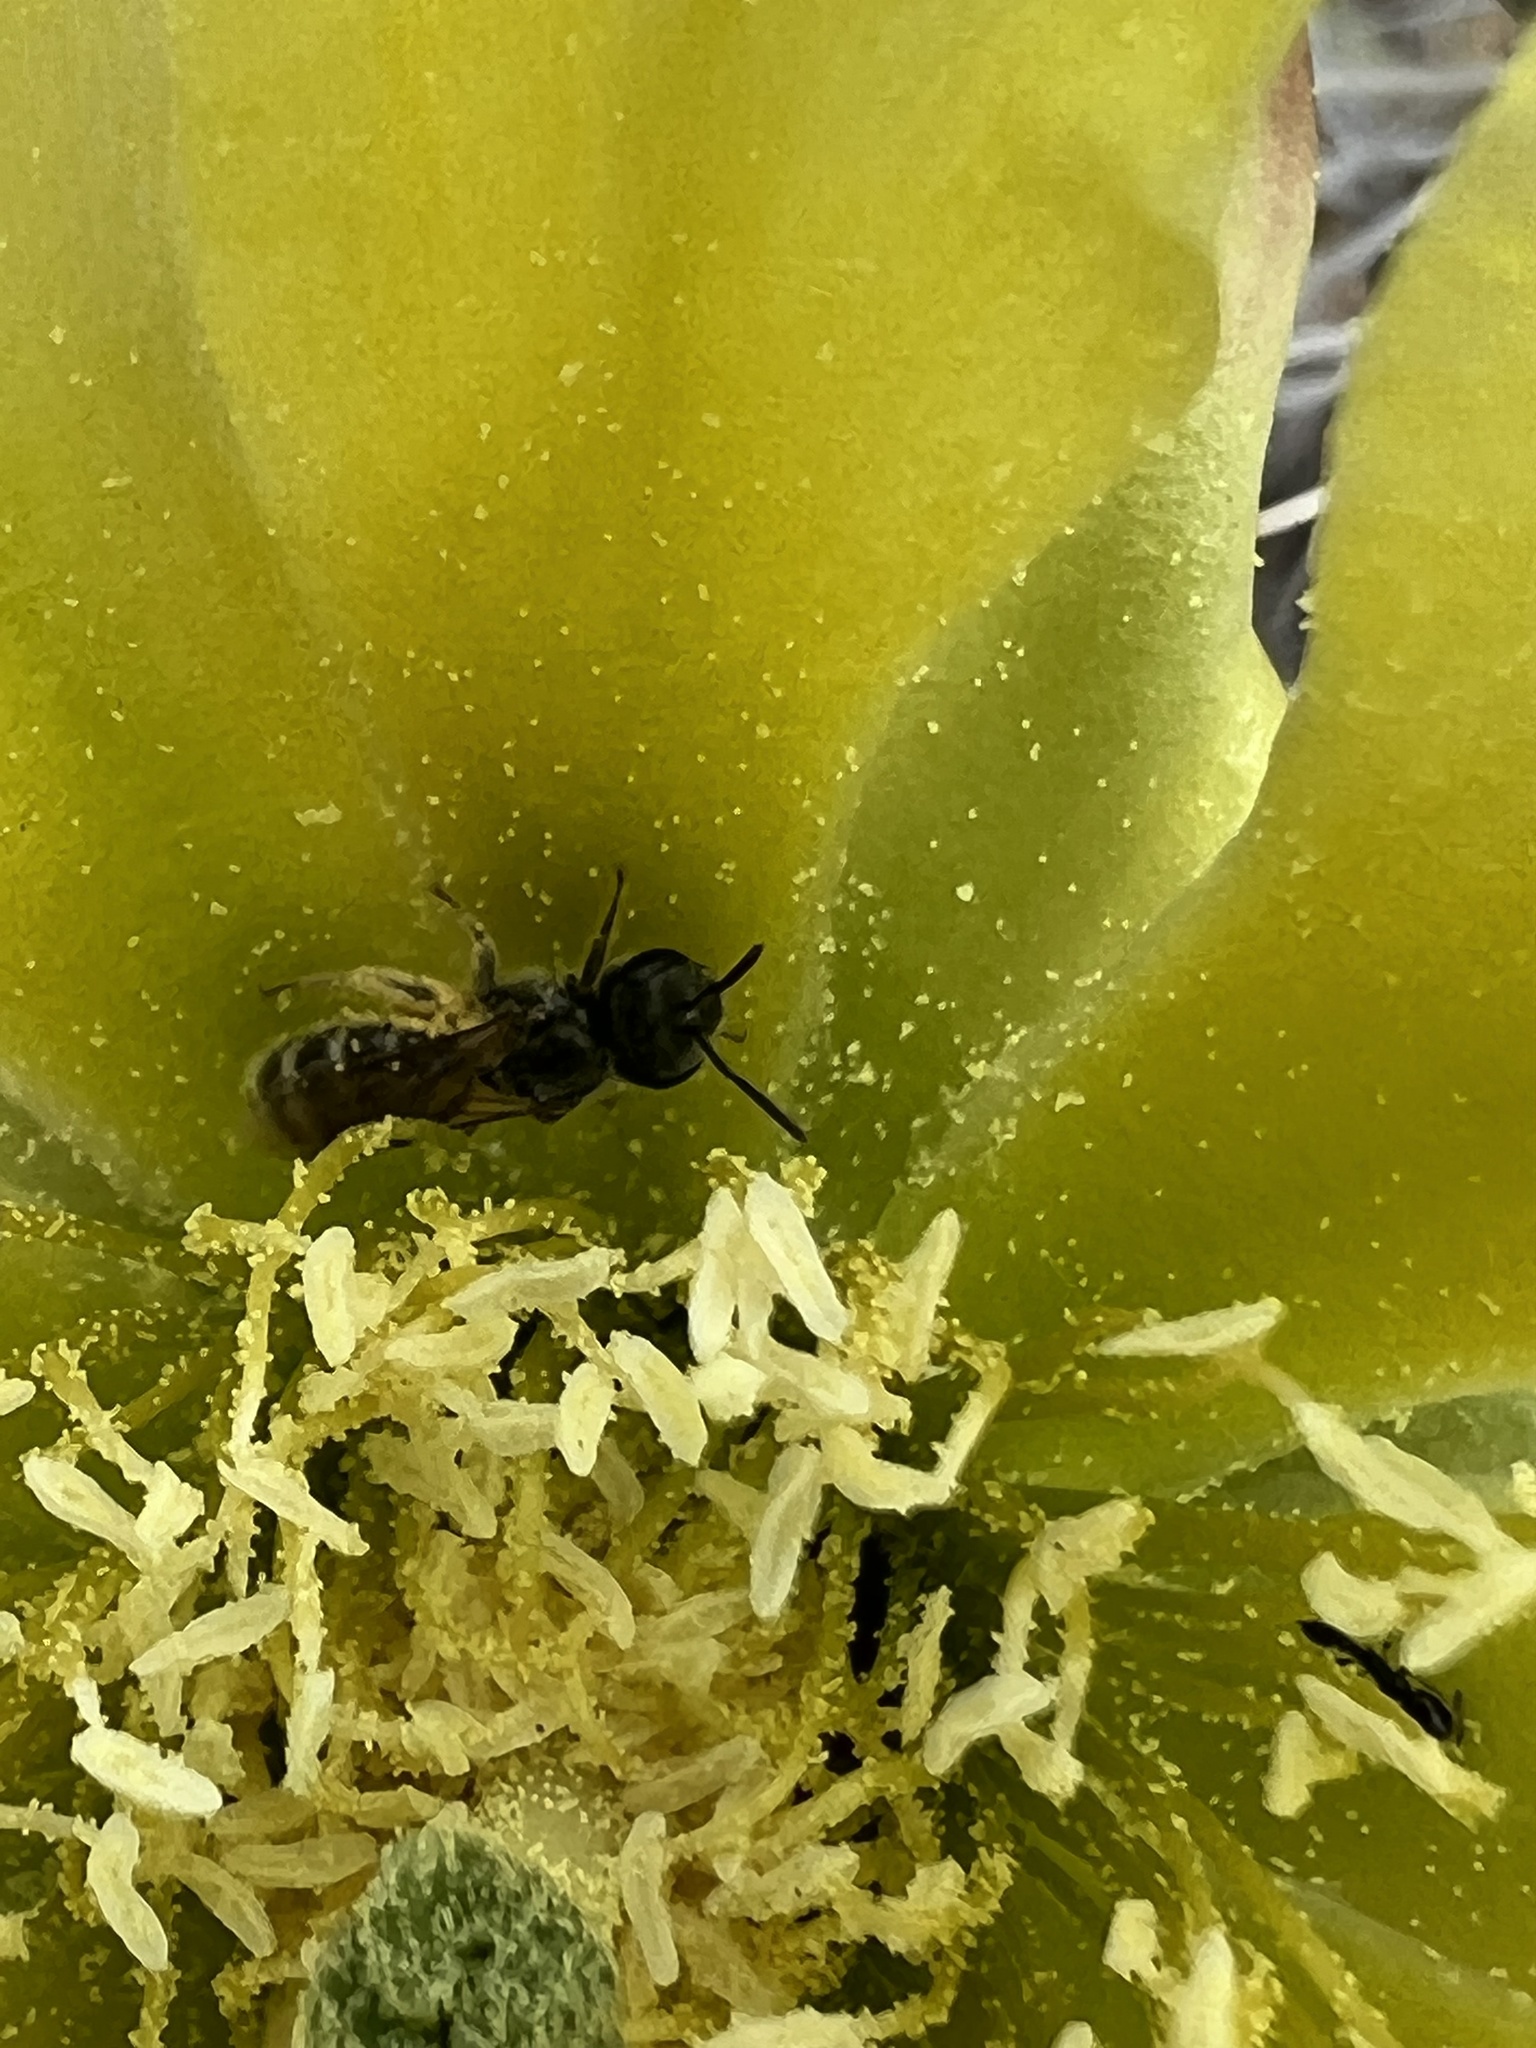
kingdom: Animalia
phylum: Arthropoda
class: Insecta
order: Hymenoptera
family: Megachilidae
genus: Lithurgopsis
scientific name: Lithurgopsis apicalis
